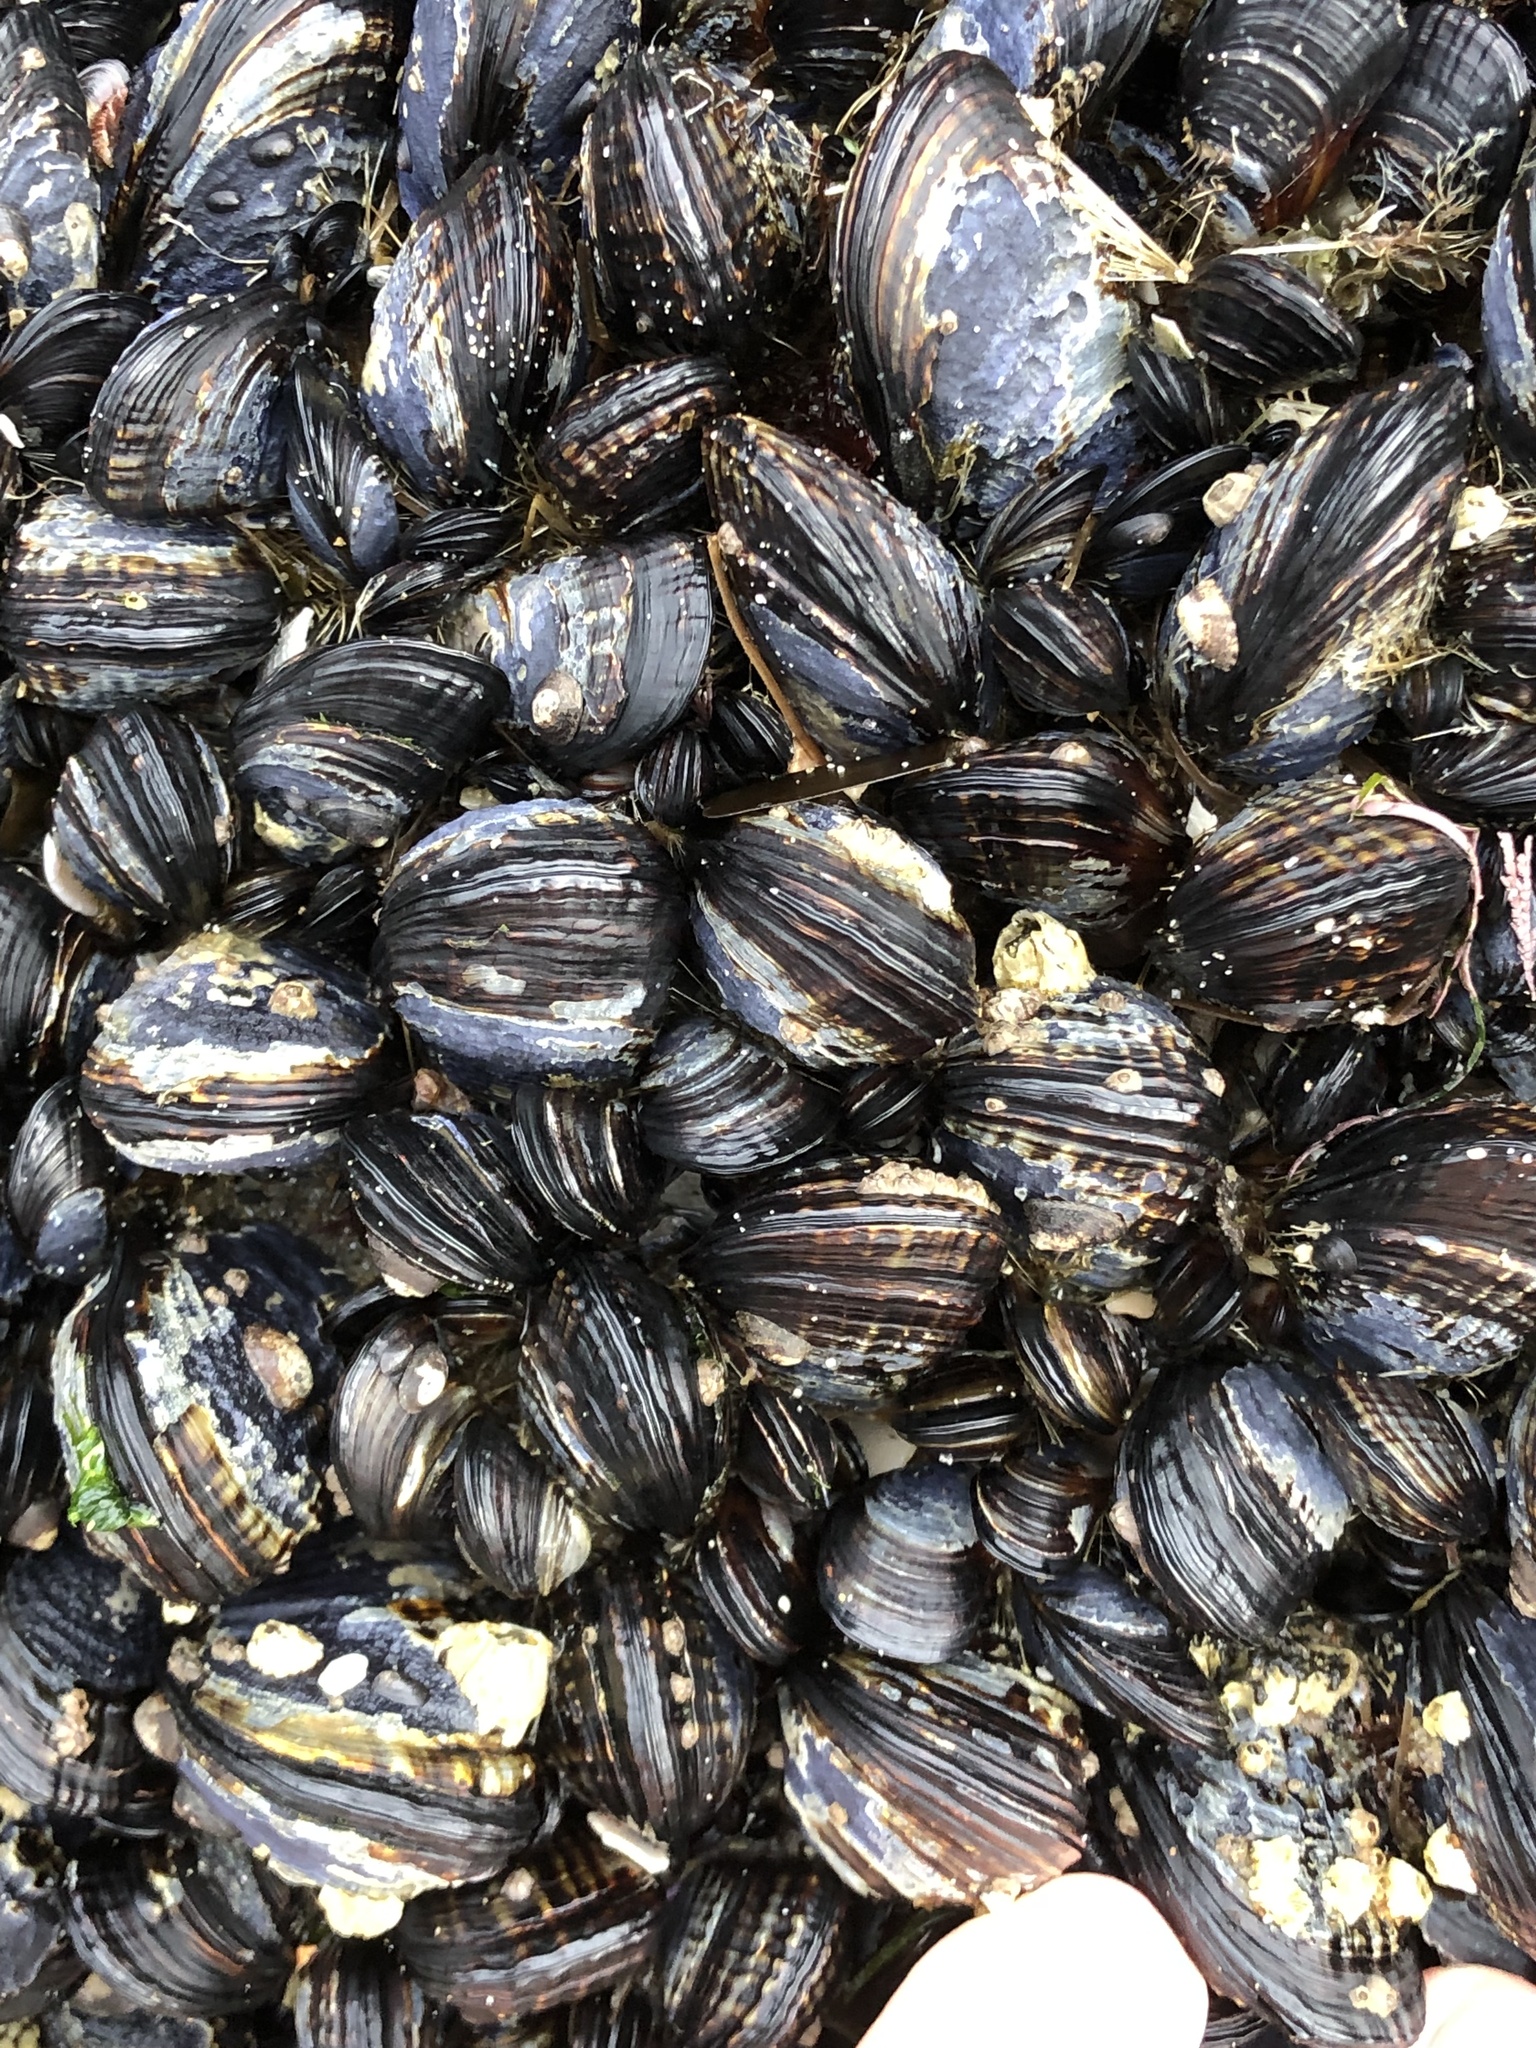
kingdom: Animalia
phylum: Mollusca
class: Bivalvia
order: Mytilida
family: Mytilidae
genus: Mytilus
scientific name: Mytilus californianus
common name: California mussel
